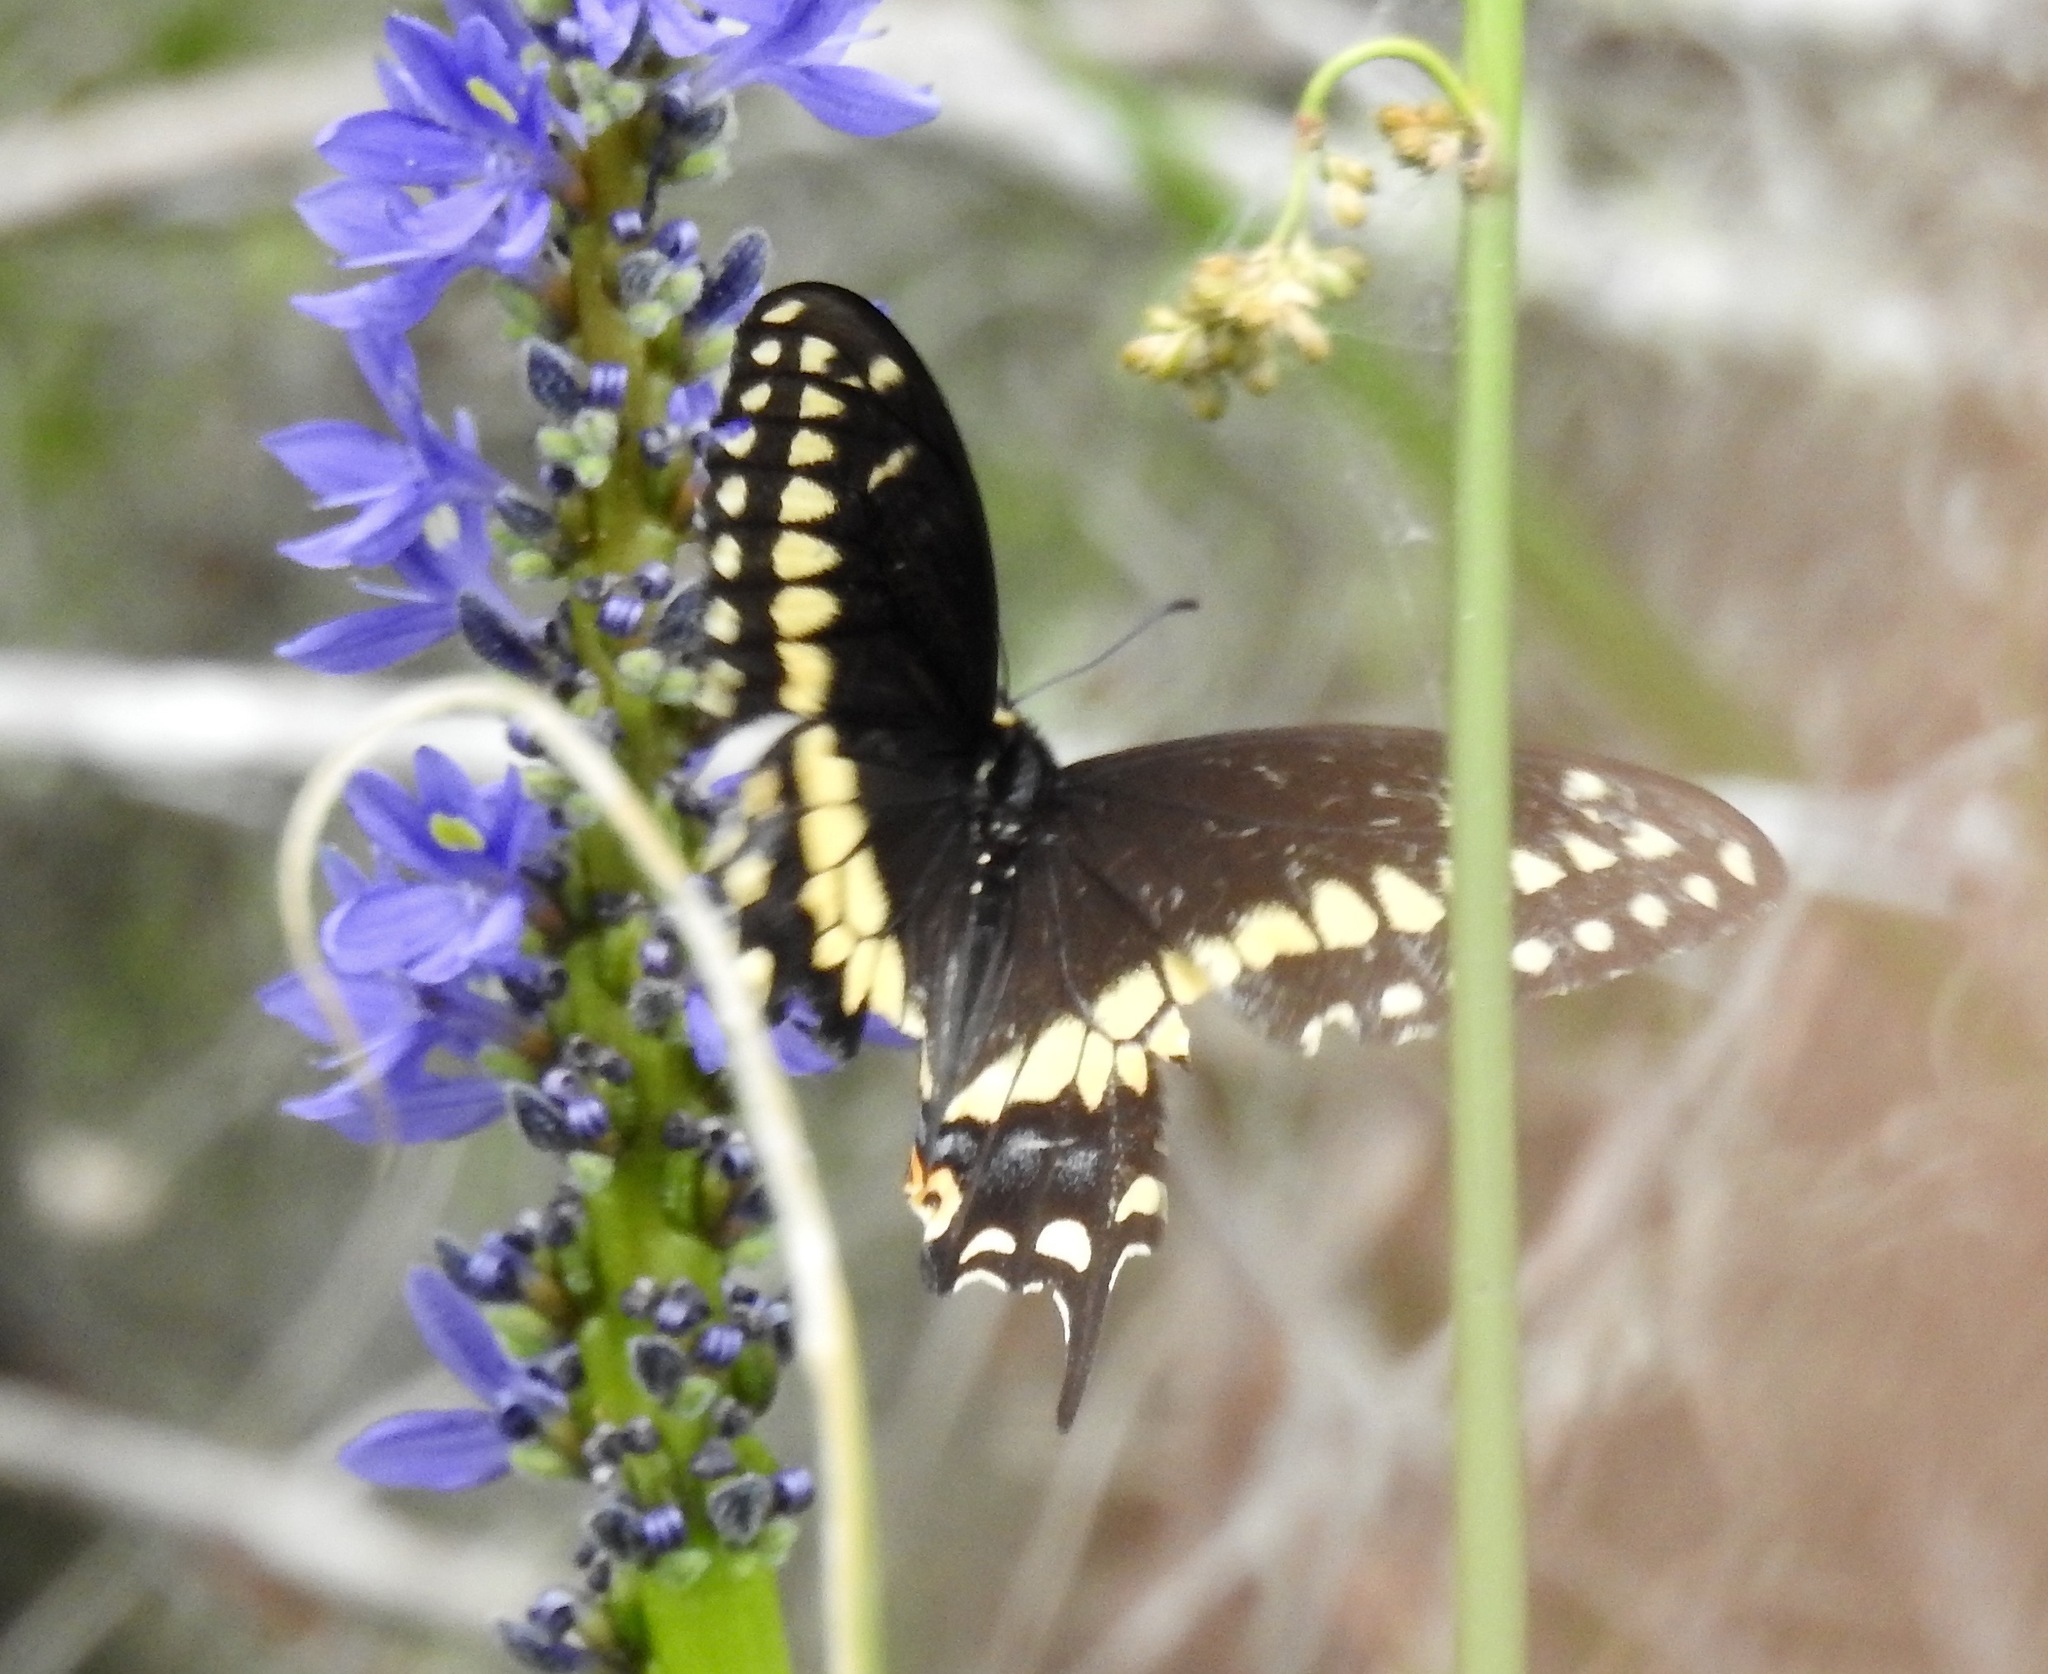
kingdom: Animalia
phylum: Arthropoda
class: Insecta
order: Lepidoptera
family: Papilionidae
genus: Papilio
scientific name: Papilio polyxenes
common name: Black swallowtail
